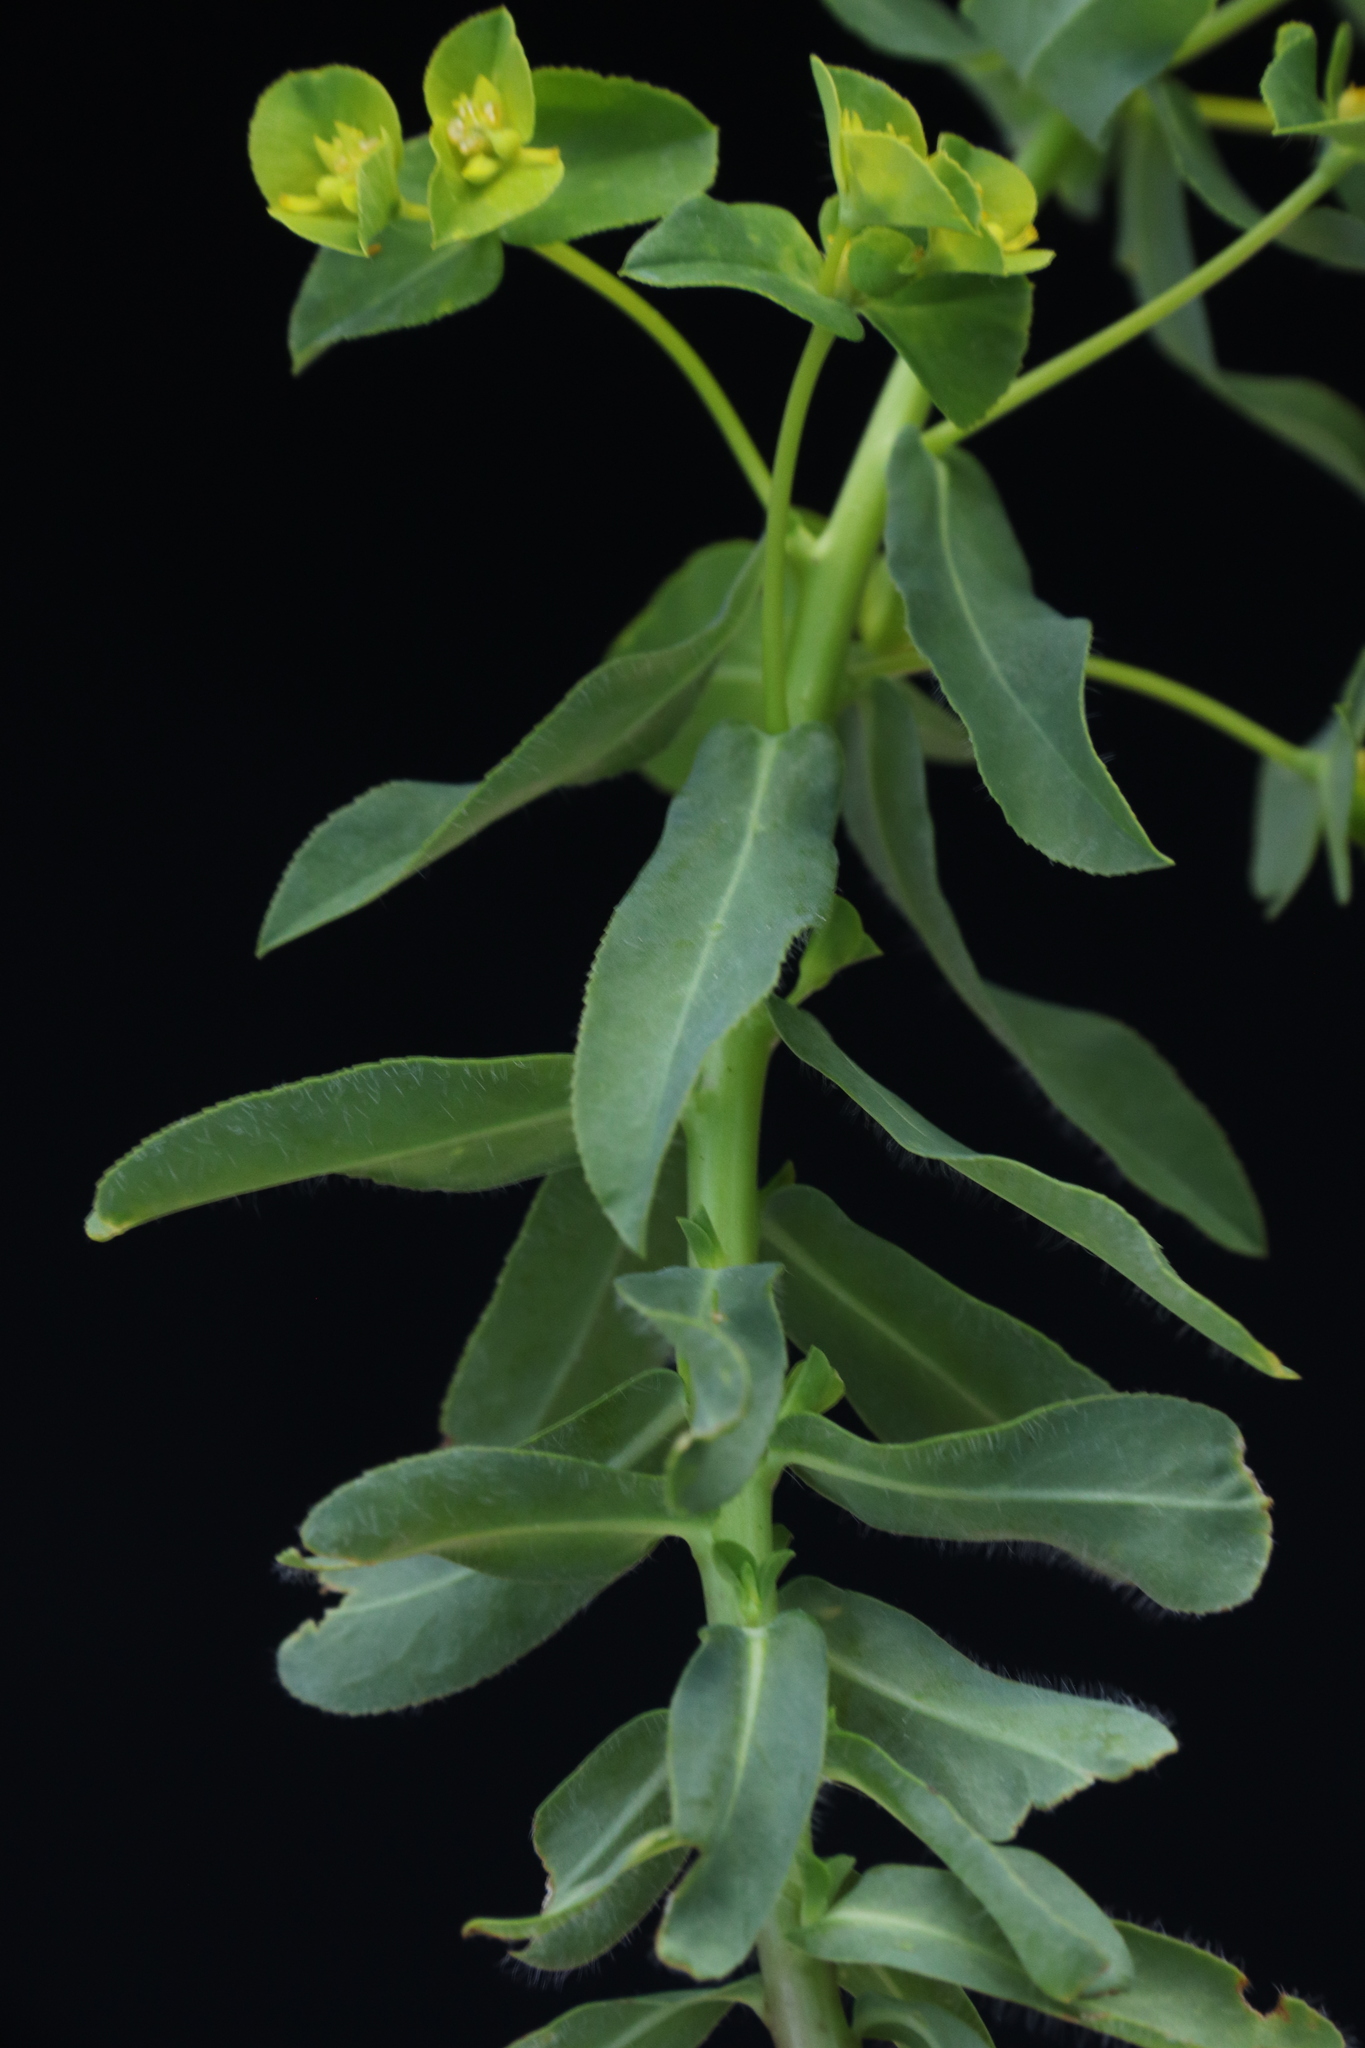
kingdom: Plantae
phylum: Tracheophyta
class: Magnoliopsida
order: Malpighiales
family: Euphorbiaceae
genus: Euphorbia
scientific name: Euphorbia platyphyllos
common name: Broad-leaved spurge
